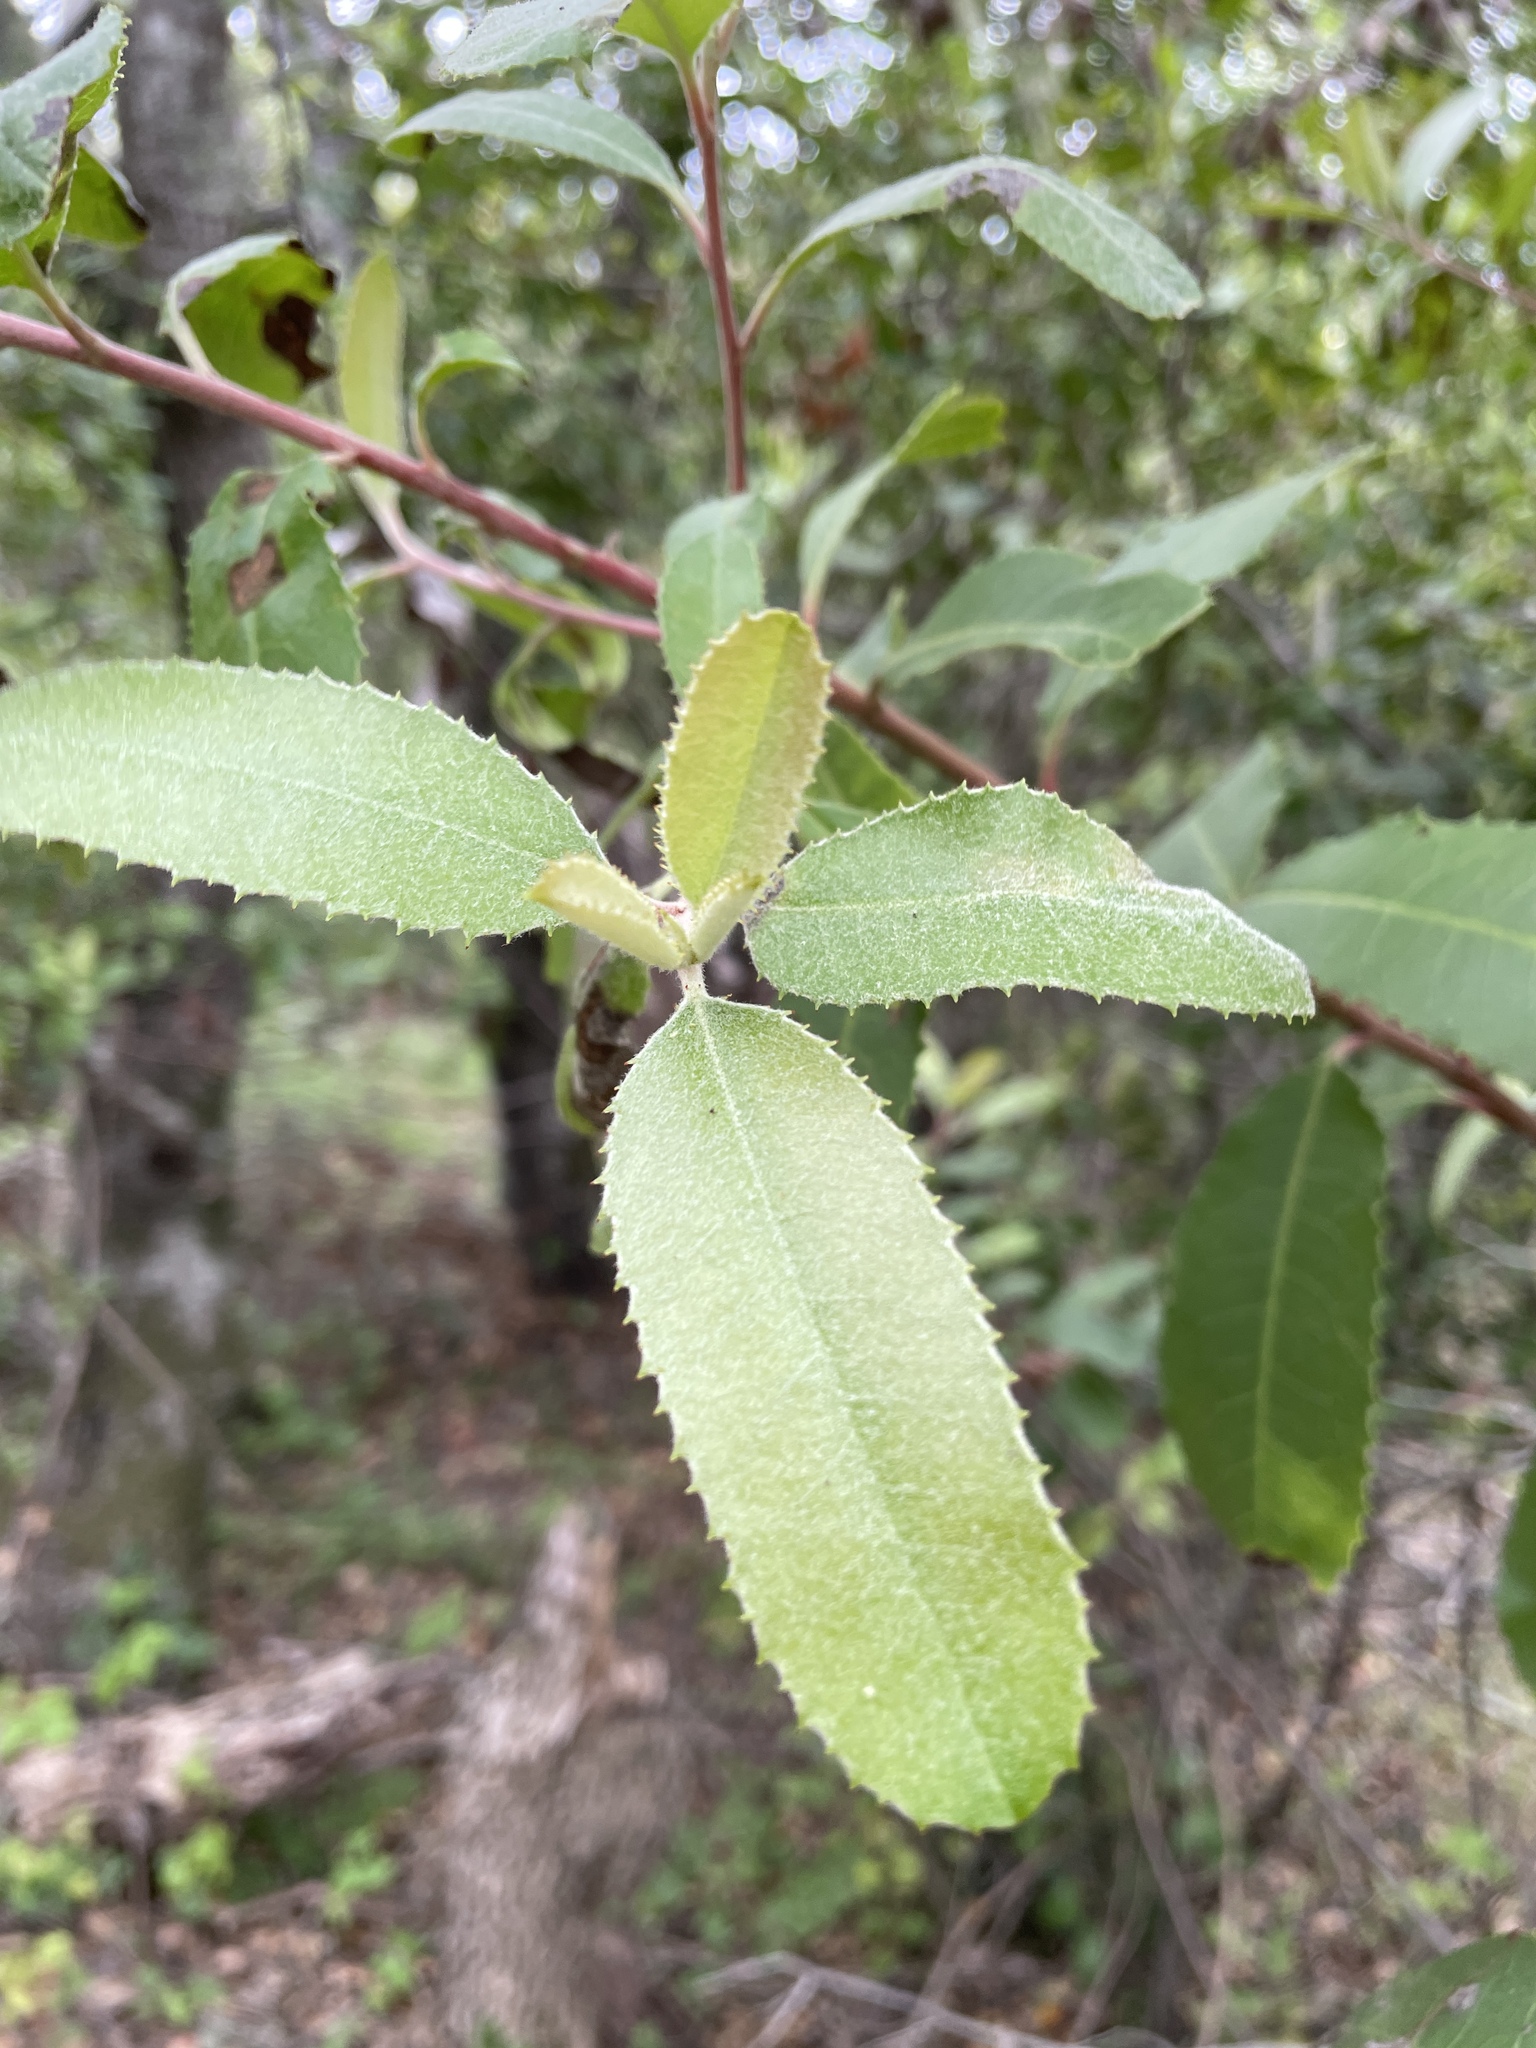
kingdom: Plantae
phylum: Tracheophyta
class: Magnoliopsida
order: Rosales
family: Rosaceae
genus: Heteromeles
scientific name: Heteromeles arbutifolia
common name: California-holly
